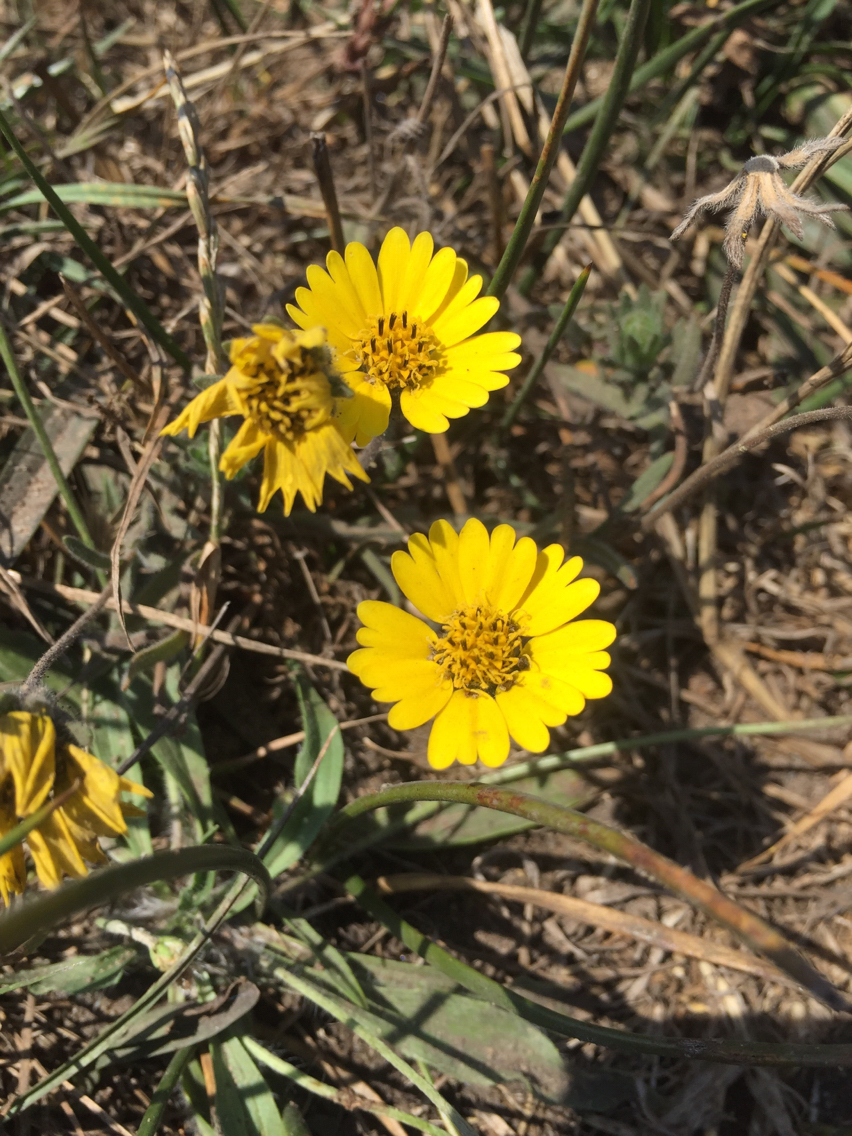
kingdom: Plantae
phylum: Tracheophyta
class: Magnoliopsida
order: Asterales
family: Asteraceae
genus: Hemizonia
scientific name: Hemizonia congesta
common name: Hayfield tarweed
